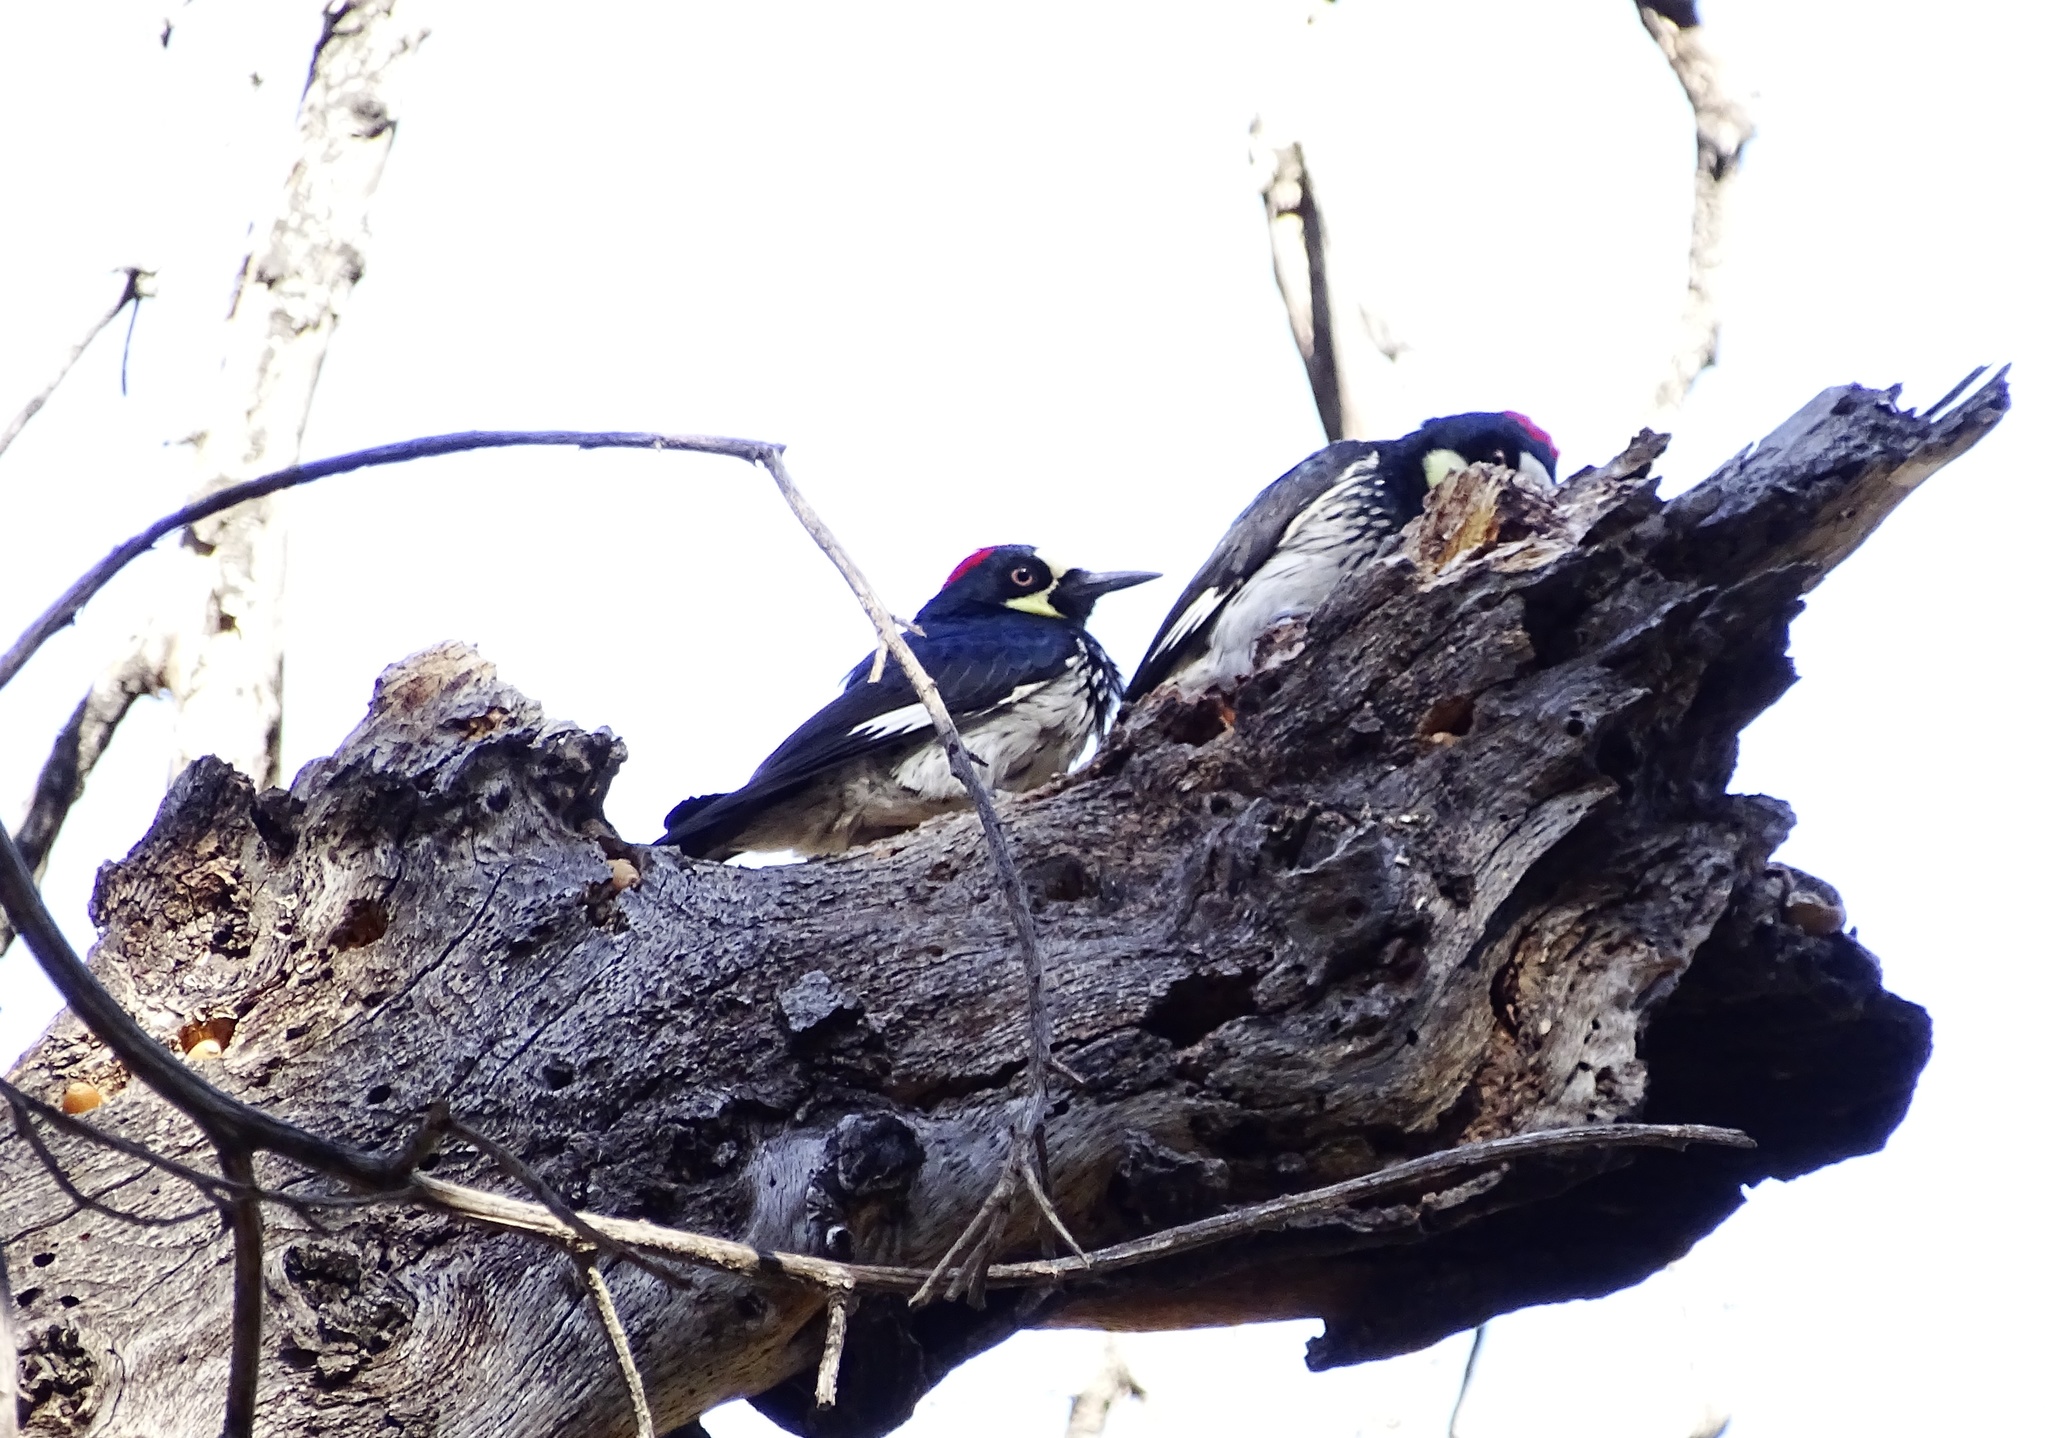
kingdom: Animalia
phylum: Chordata
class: Aves
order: Piciformes
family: Picidae
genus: Melanerpes
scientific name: Melanerpes formicivorus
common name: Acorn woodpecker
